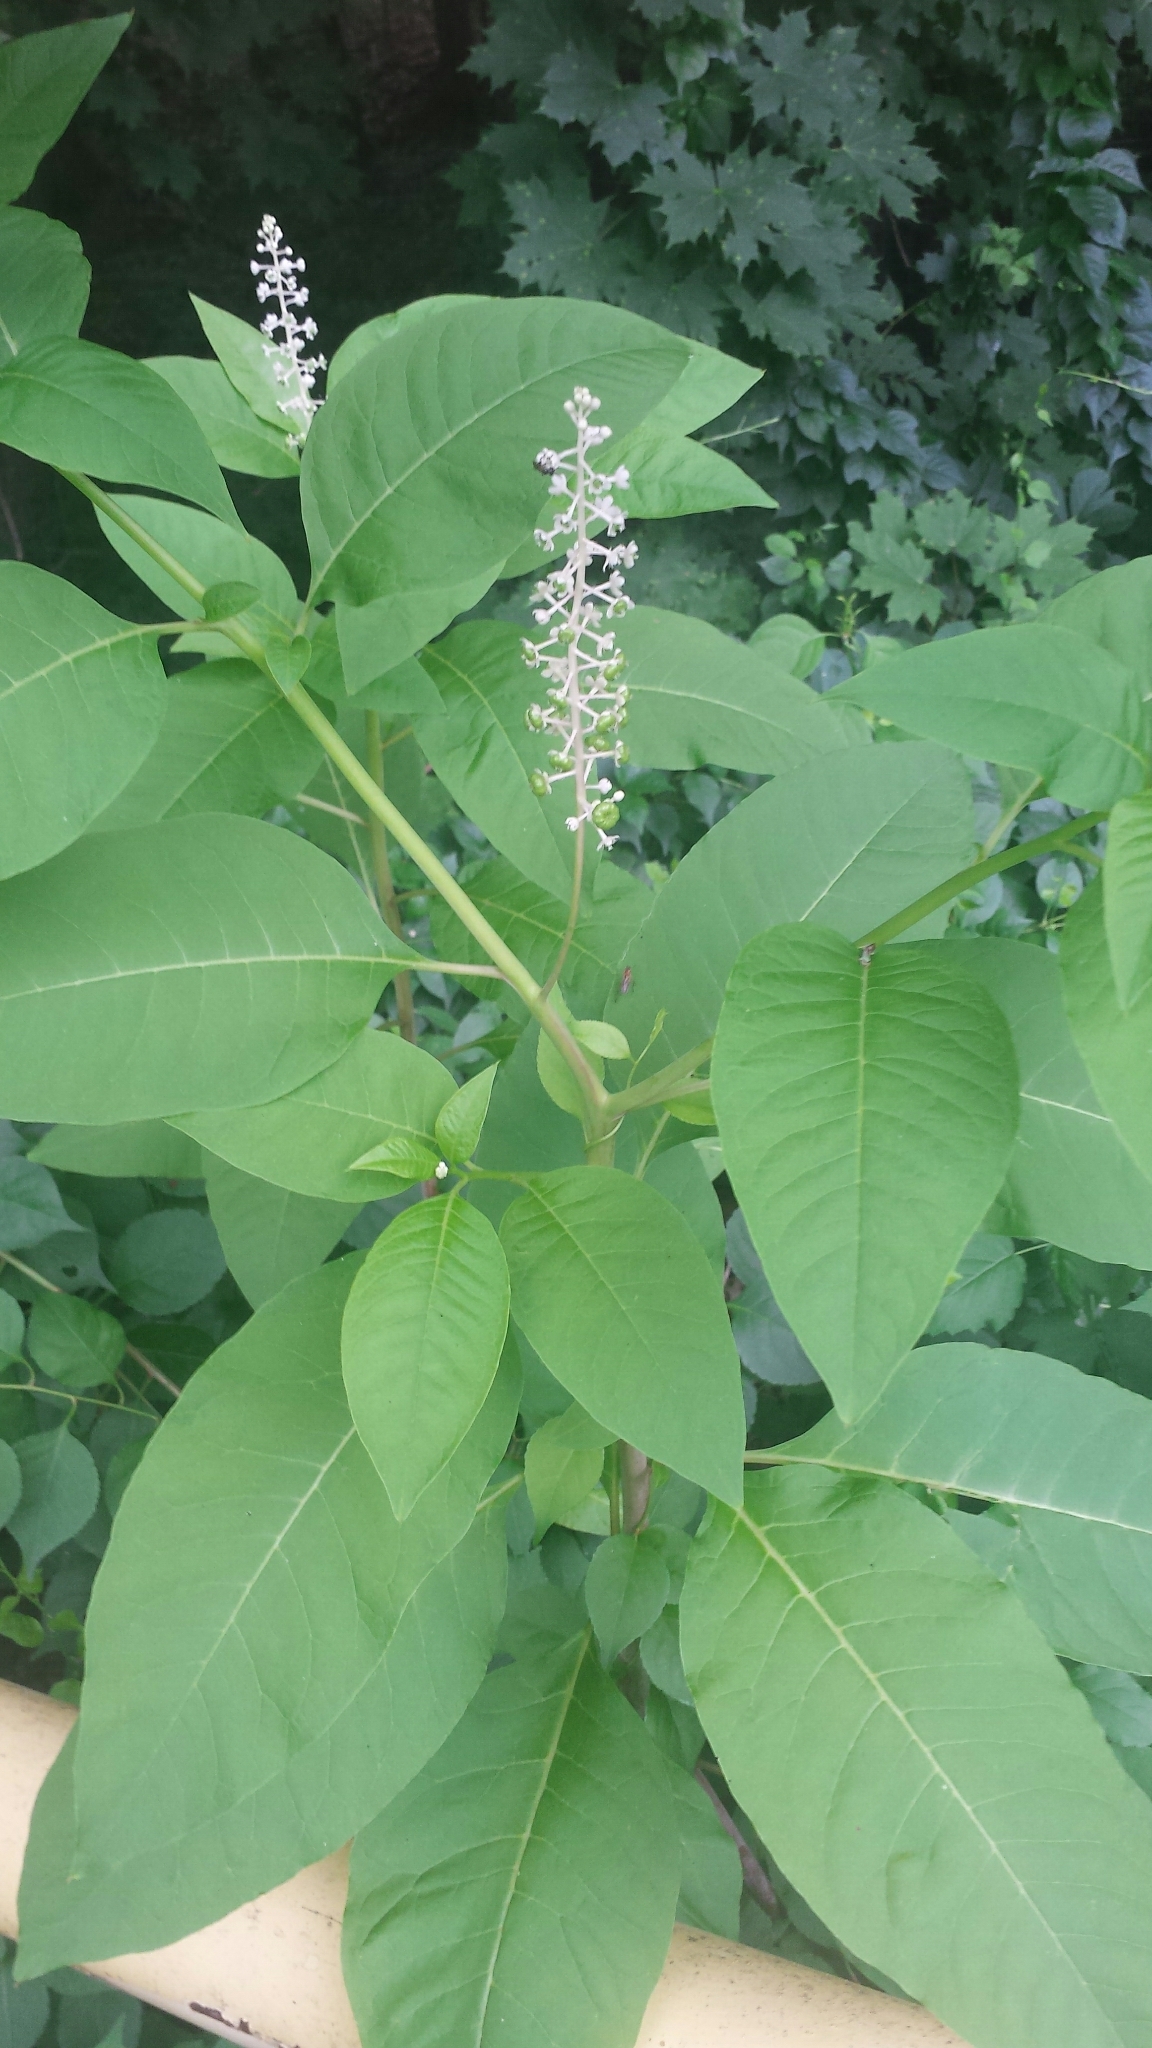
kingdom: Plantae
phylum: Tracheophyta
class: Magnoliopsida
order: Caryophyllales
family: Phytolaccaceae
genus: Phytolacca
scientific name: Phytolacca americana
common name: American pokeweed
